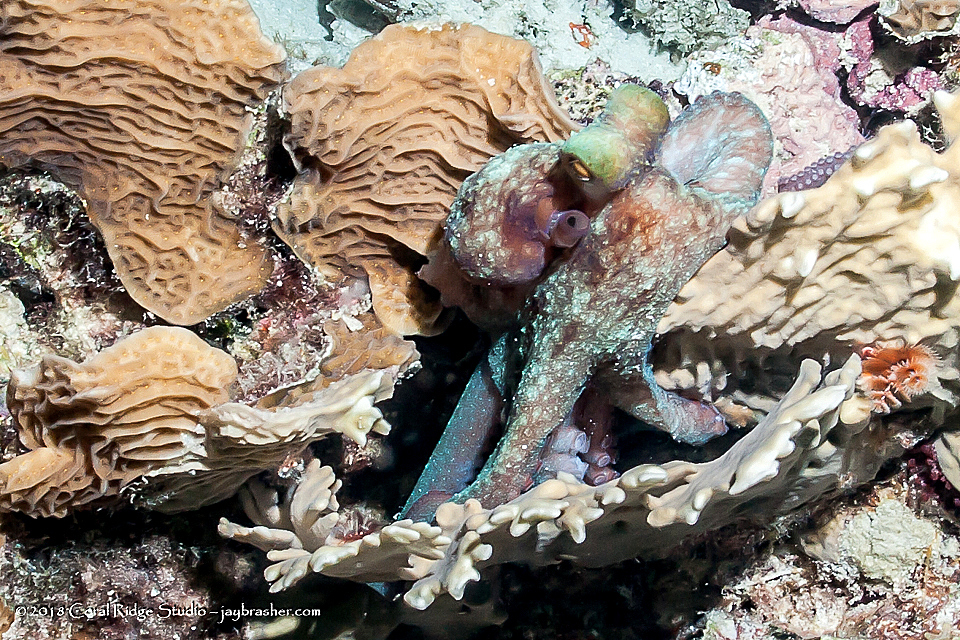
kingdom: Animalia
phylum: Mollusca
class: Cephalopoda
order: Octopoda
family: Octopodidae
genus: Octopus
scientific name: Octopus briareus
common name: Caribbean reef octopus
